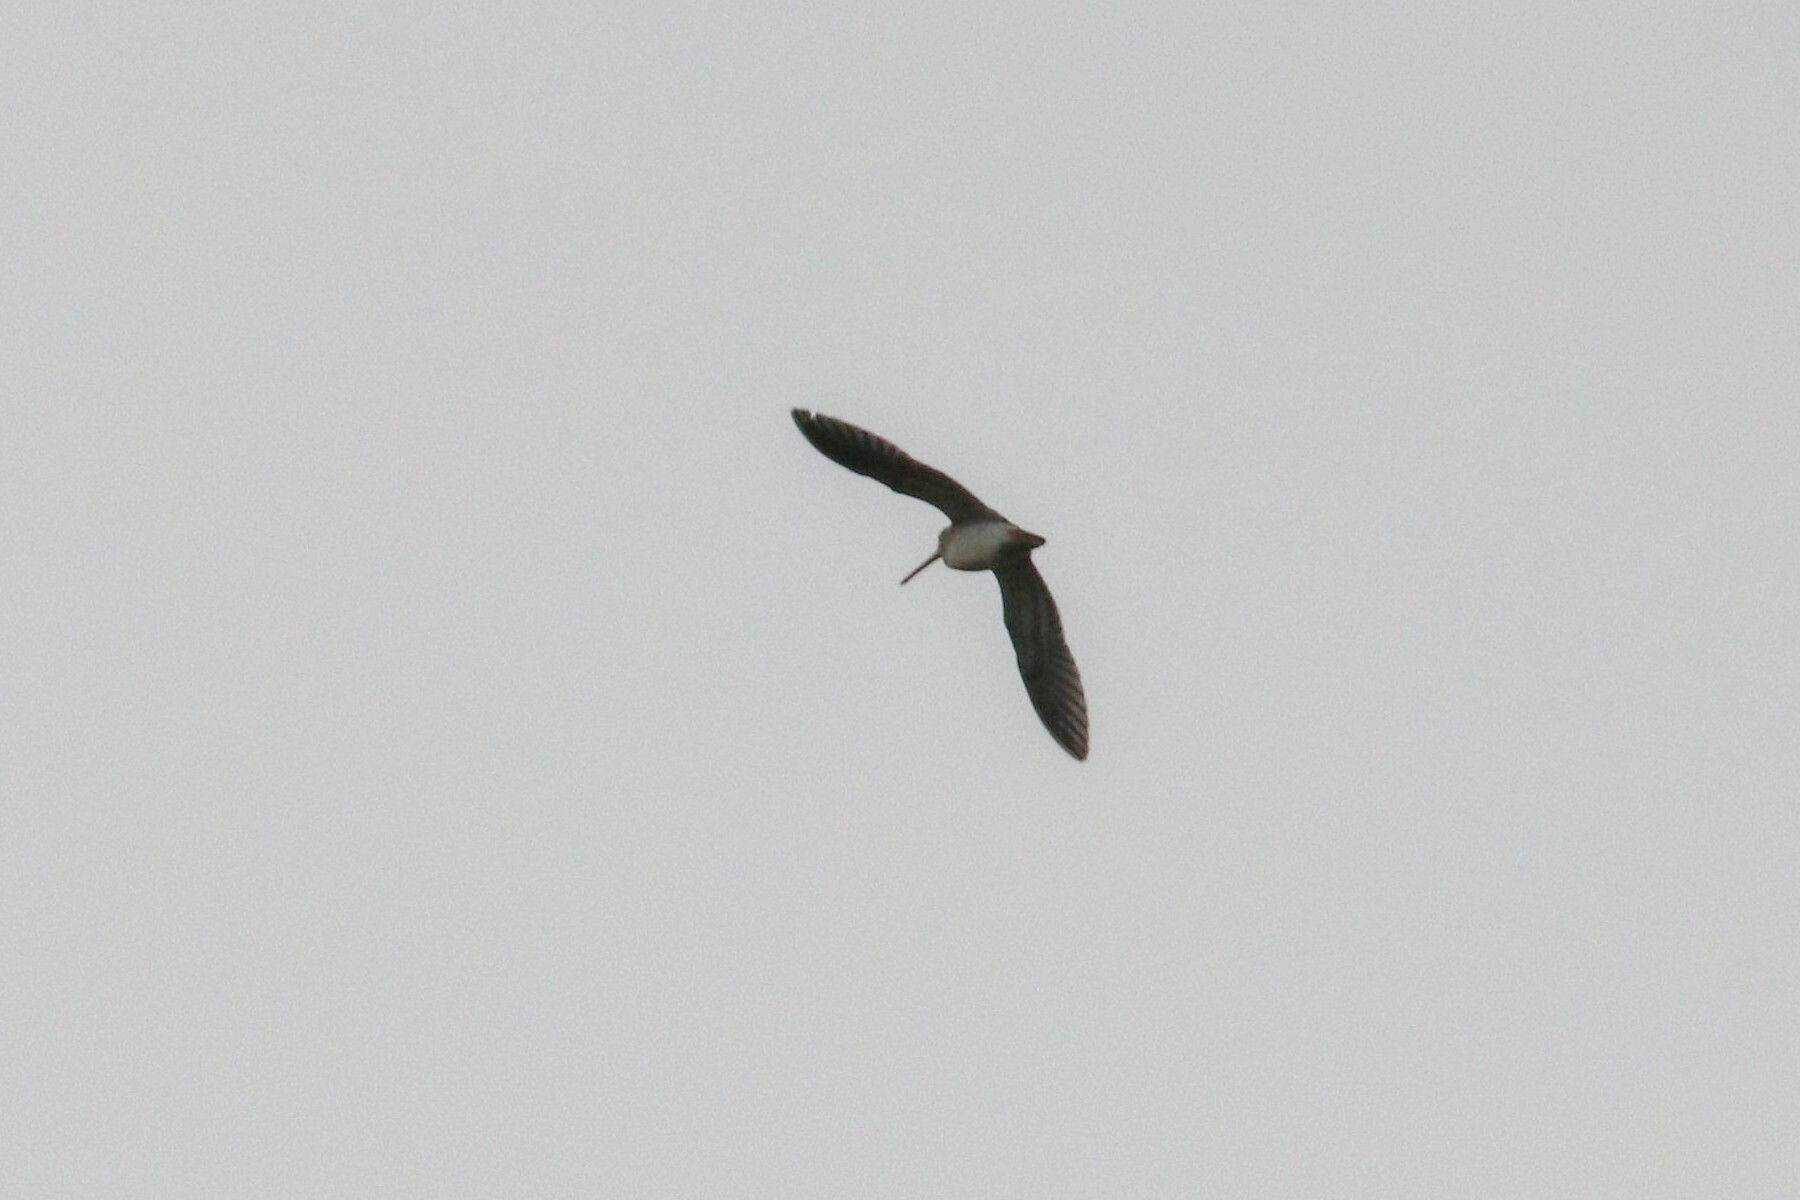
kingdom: Animalia
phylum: Chordata
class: Aves
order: Charadriiformes
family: Scolopacidae
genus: Gallinago
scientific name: Gallinago gallinago
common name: Common snipe
